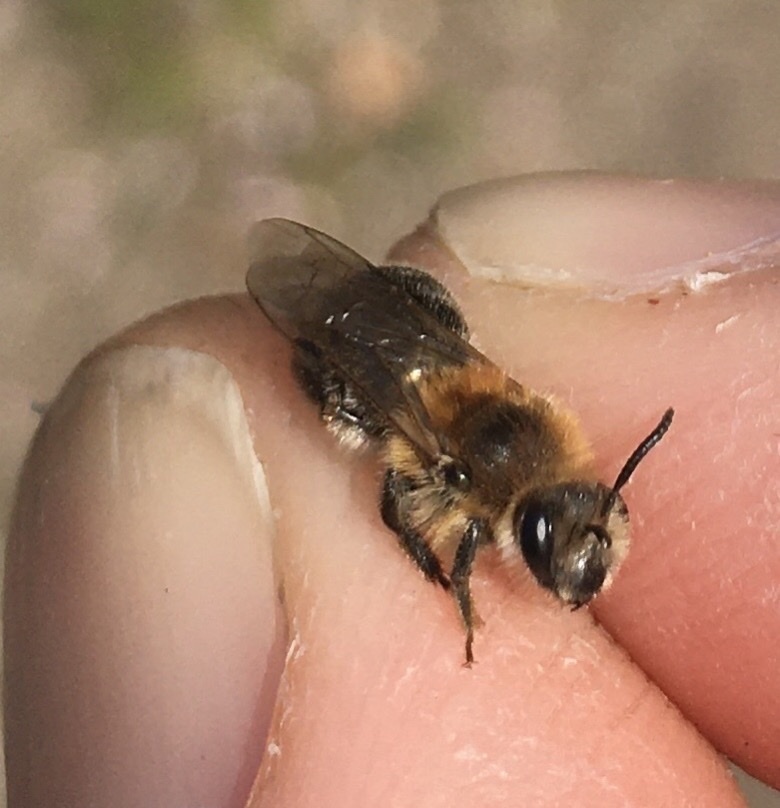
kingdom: Animalia
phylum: Arthropoda
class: Insecta
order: Hymenoptera
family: Andrenidae
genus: Andrena
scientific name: Andrena barbilabris
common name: Sandpit mining bee
